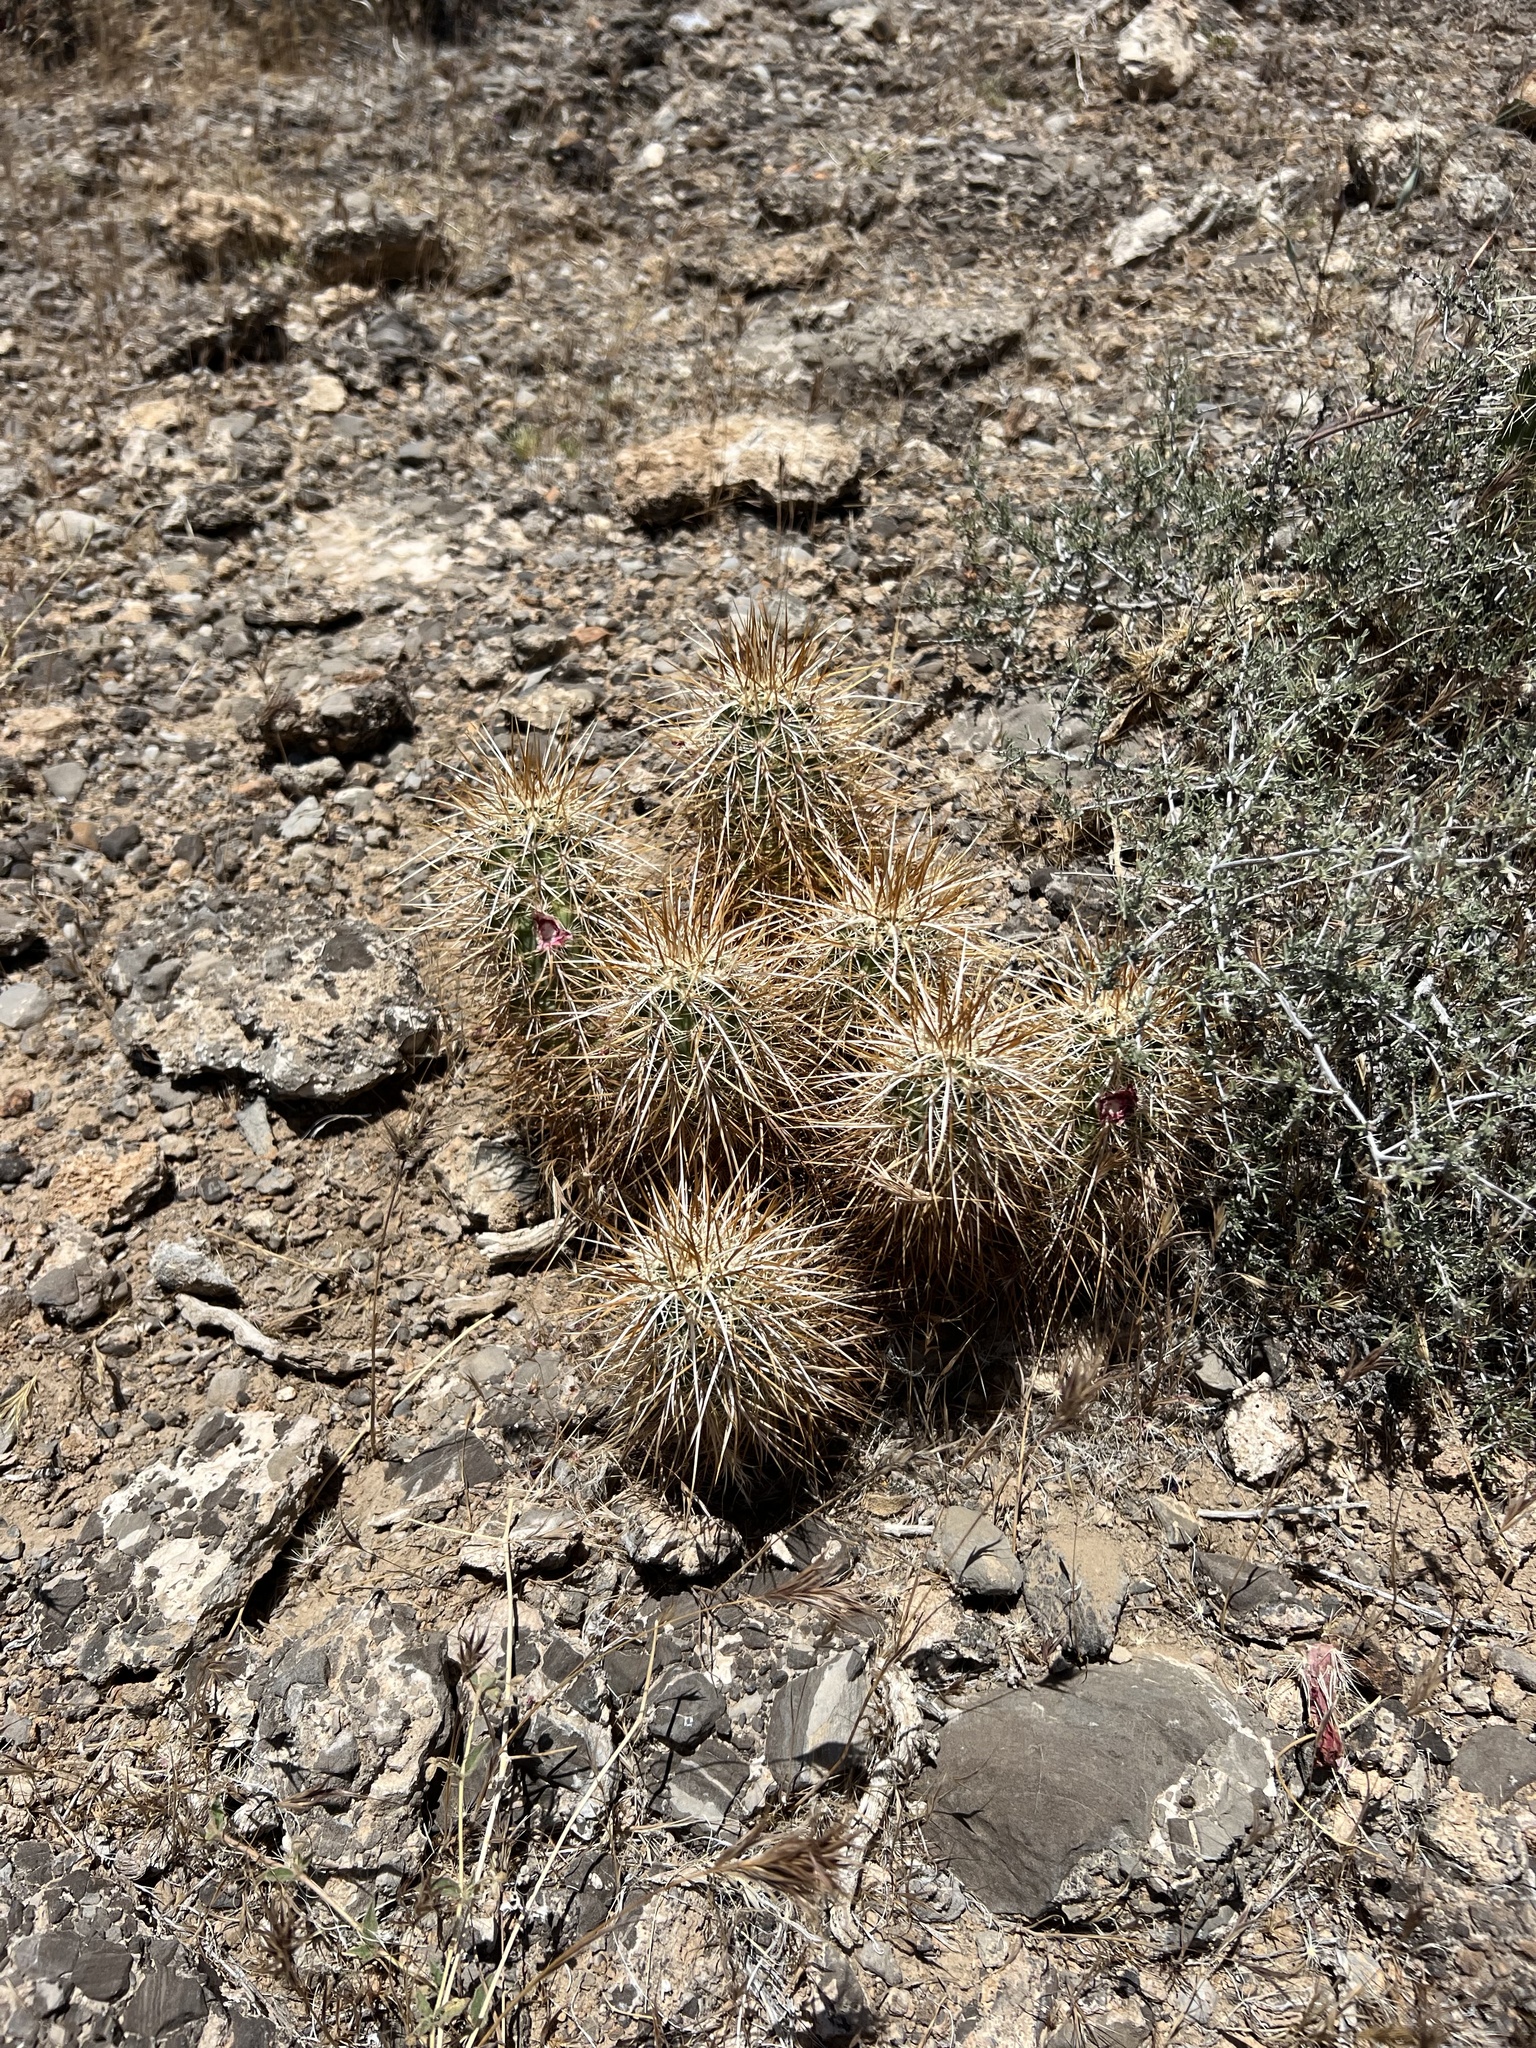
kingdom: Plantae
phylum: Tracheophyta
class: Magnoliopsida
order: Caryophyllales
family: Cactaceae
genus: Echinocereus
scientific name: Echinocereus engelmannii
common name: Engelmann's hedgehog cactus
